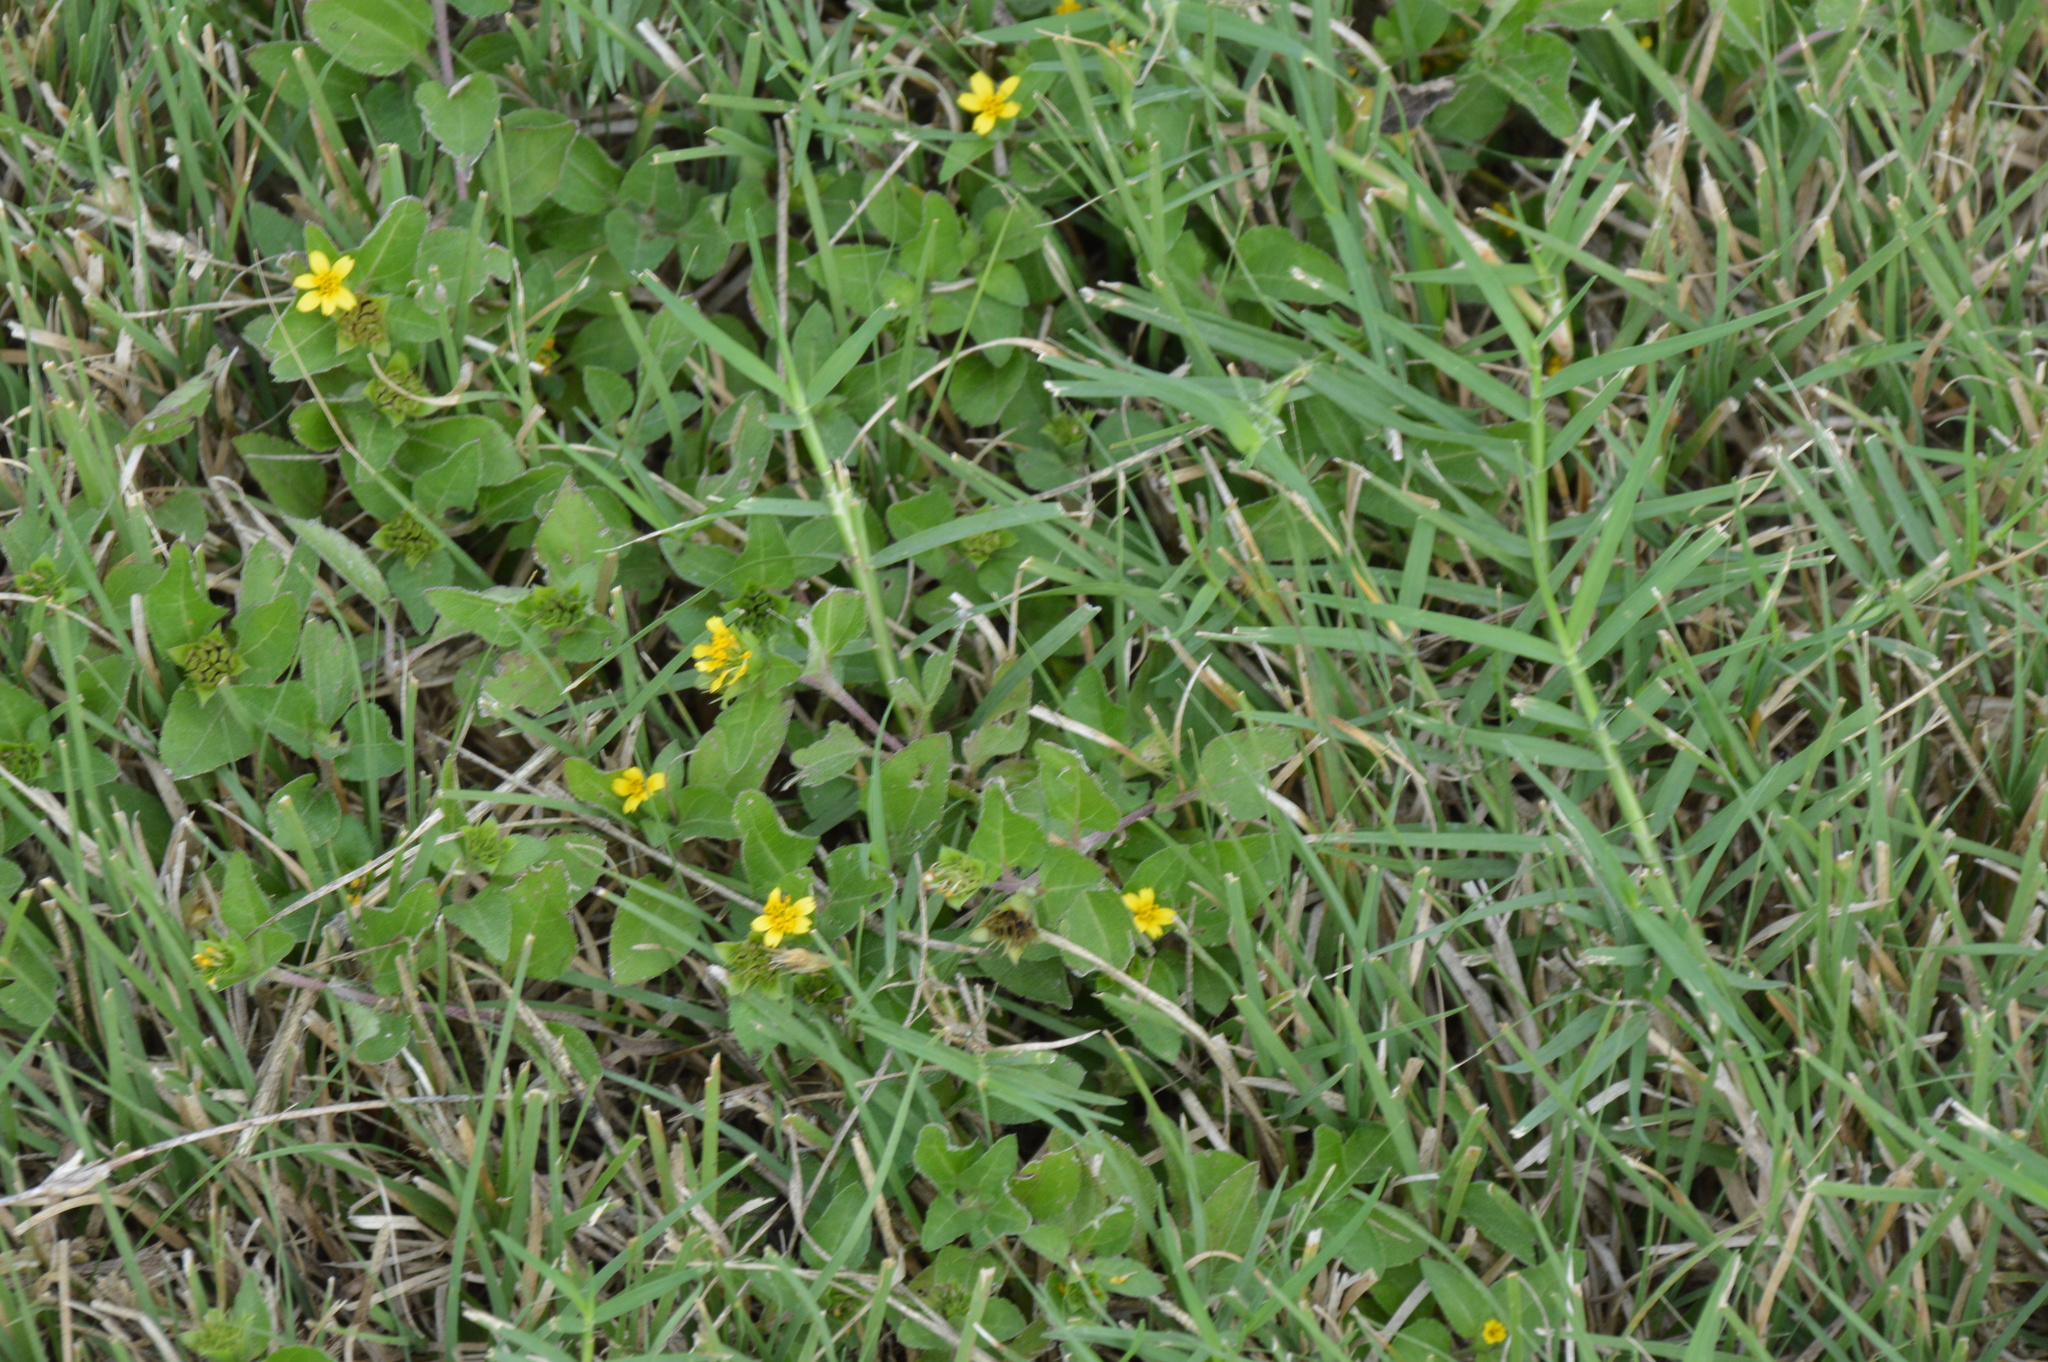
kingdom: Plantae
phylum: Tracheophyta
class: Magnoliopsida
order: Asterales
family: Asteraceae
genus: Calyptocarpus
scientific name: Calyptocarpus vialis
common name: Straggler daisy
